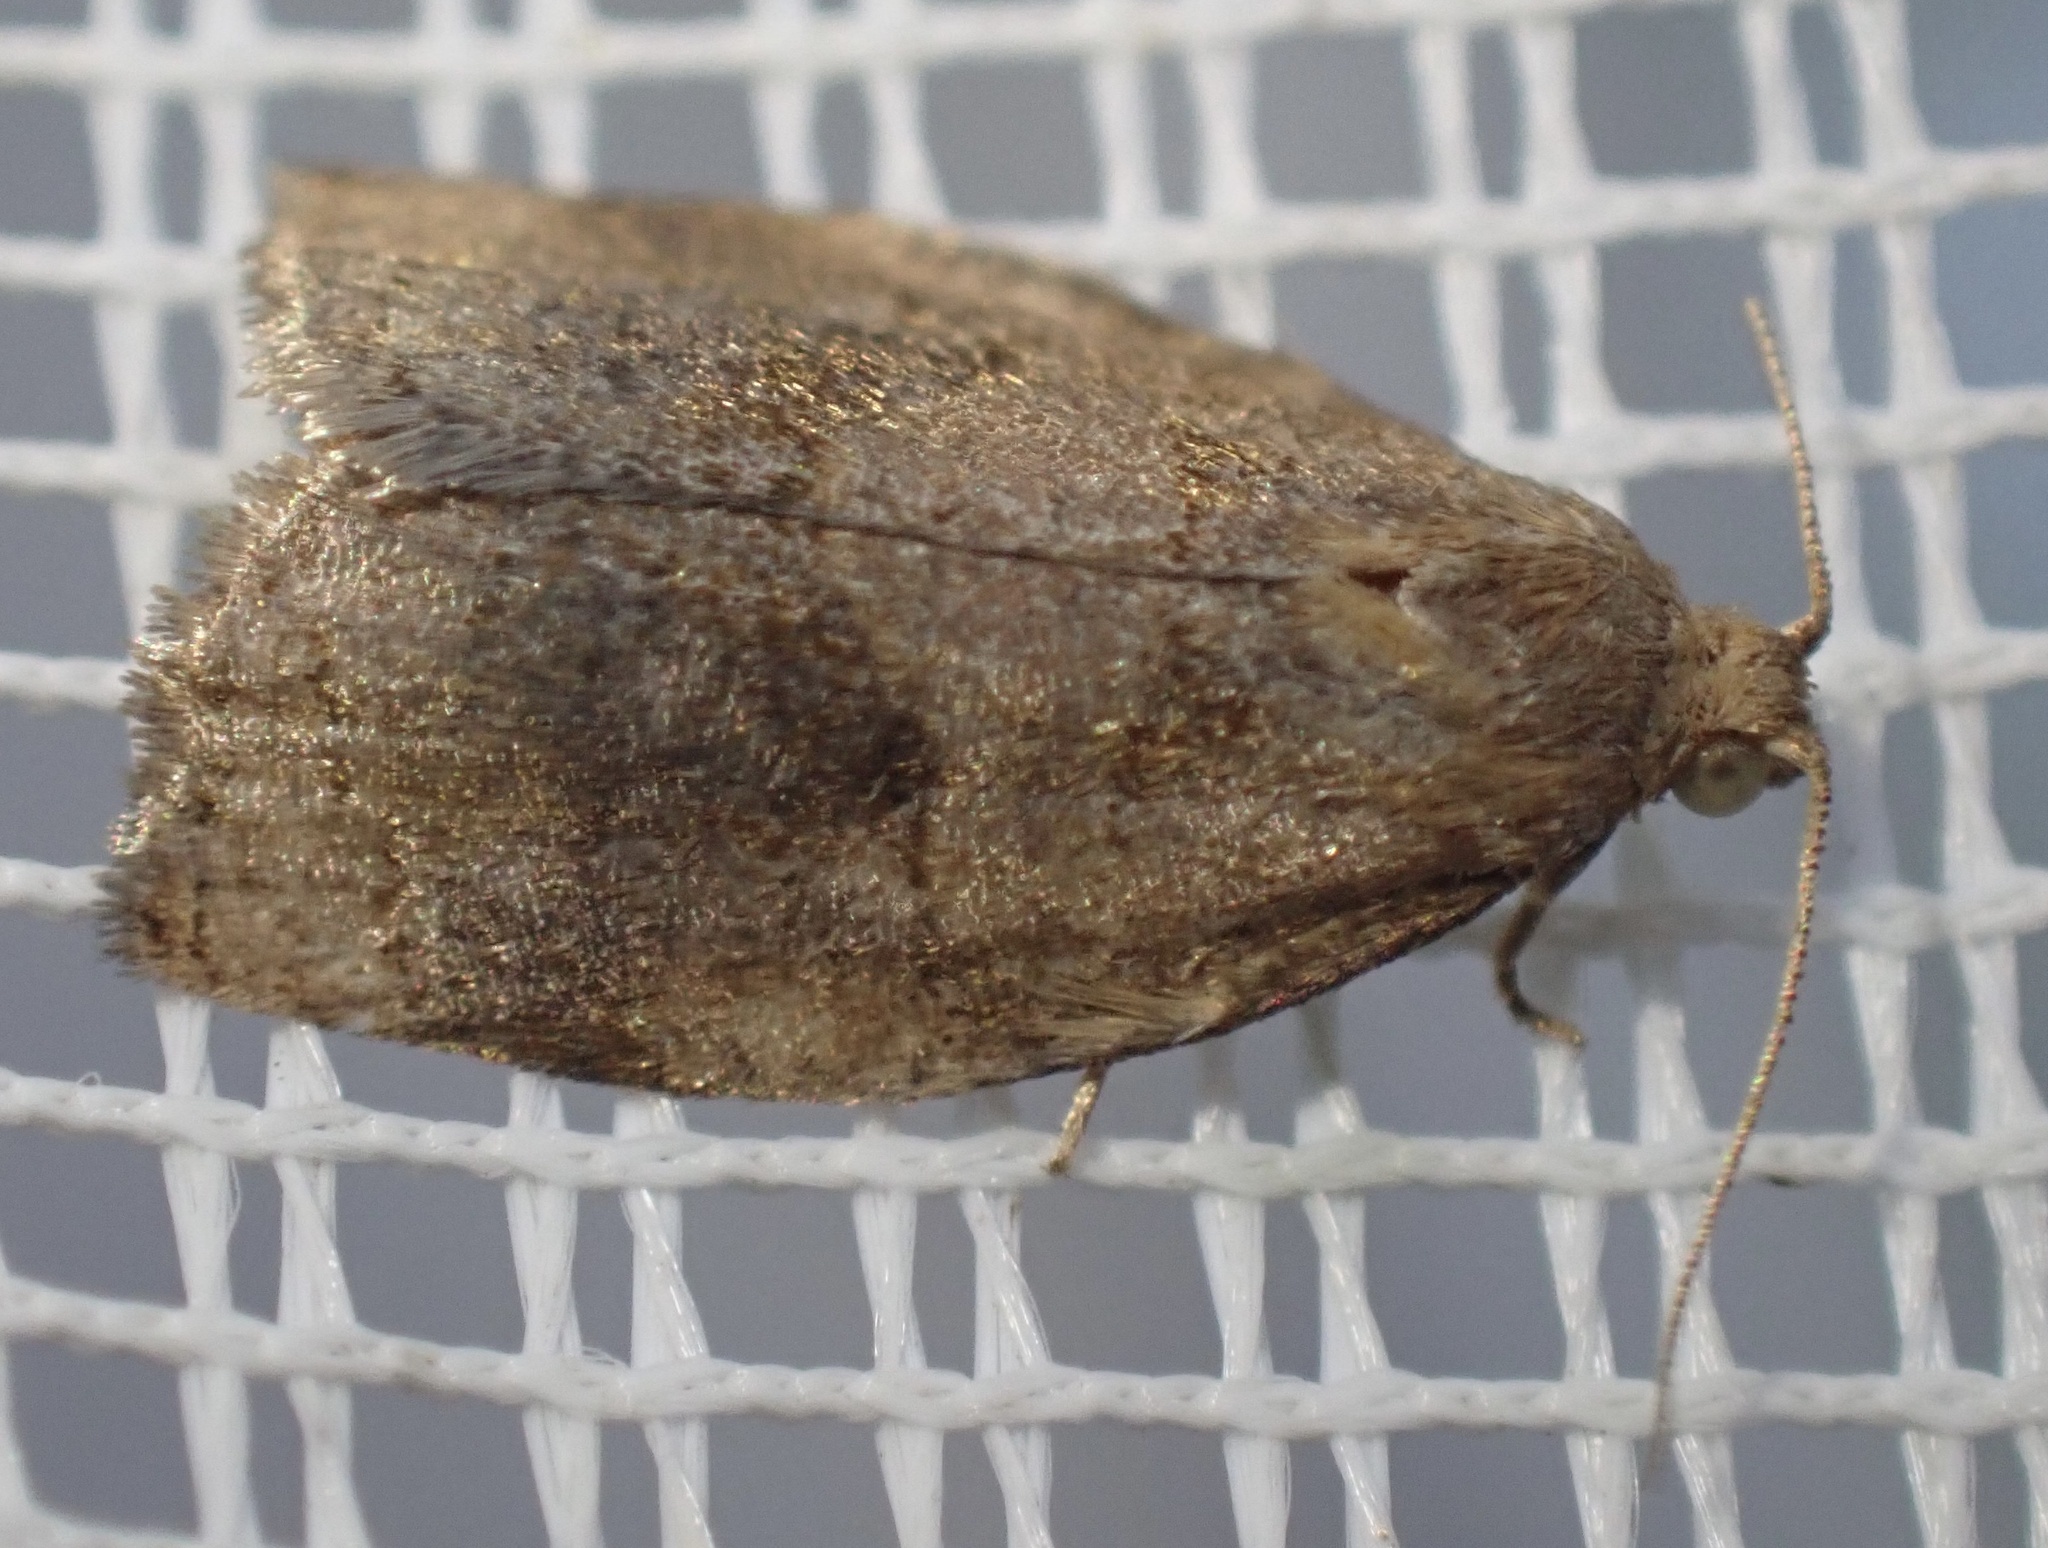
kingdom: Animalia
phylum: Arthropoda
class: Insecta
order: Lepidoptera
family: Tortricidae
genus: Archips
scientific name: Archips rosana
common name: Rose tortrix
